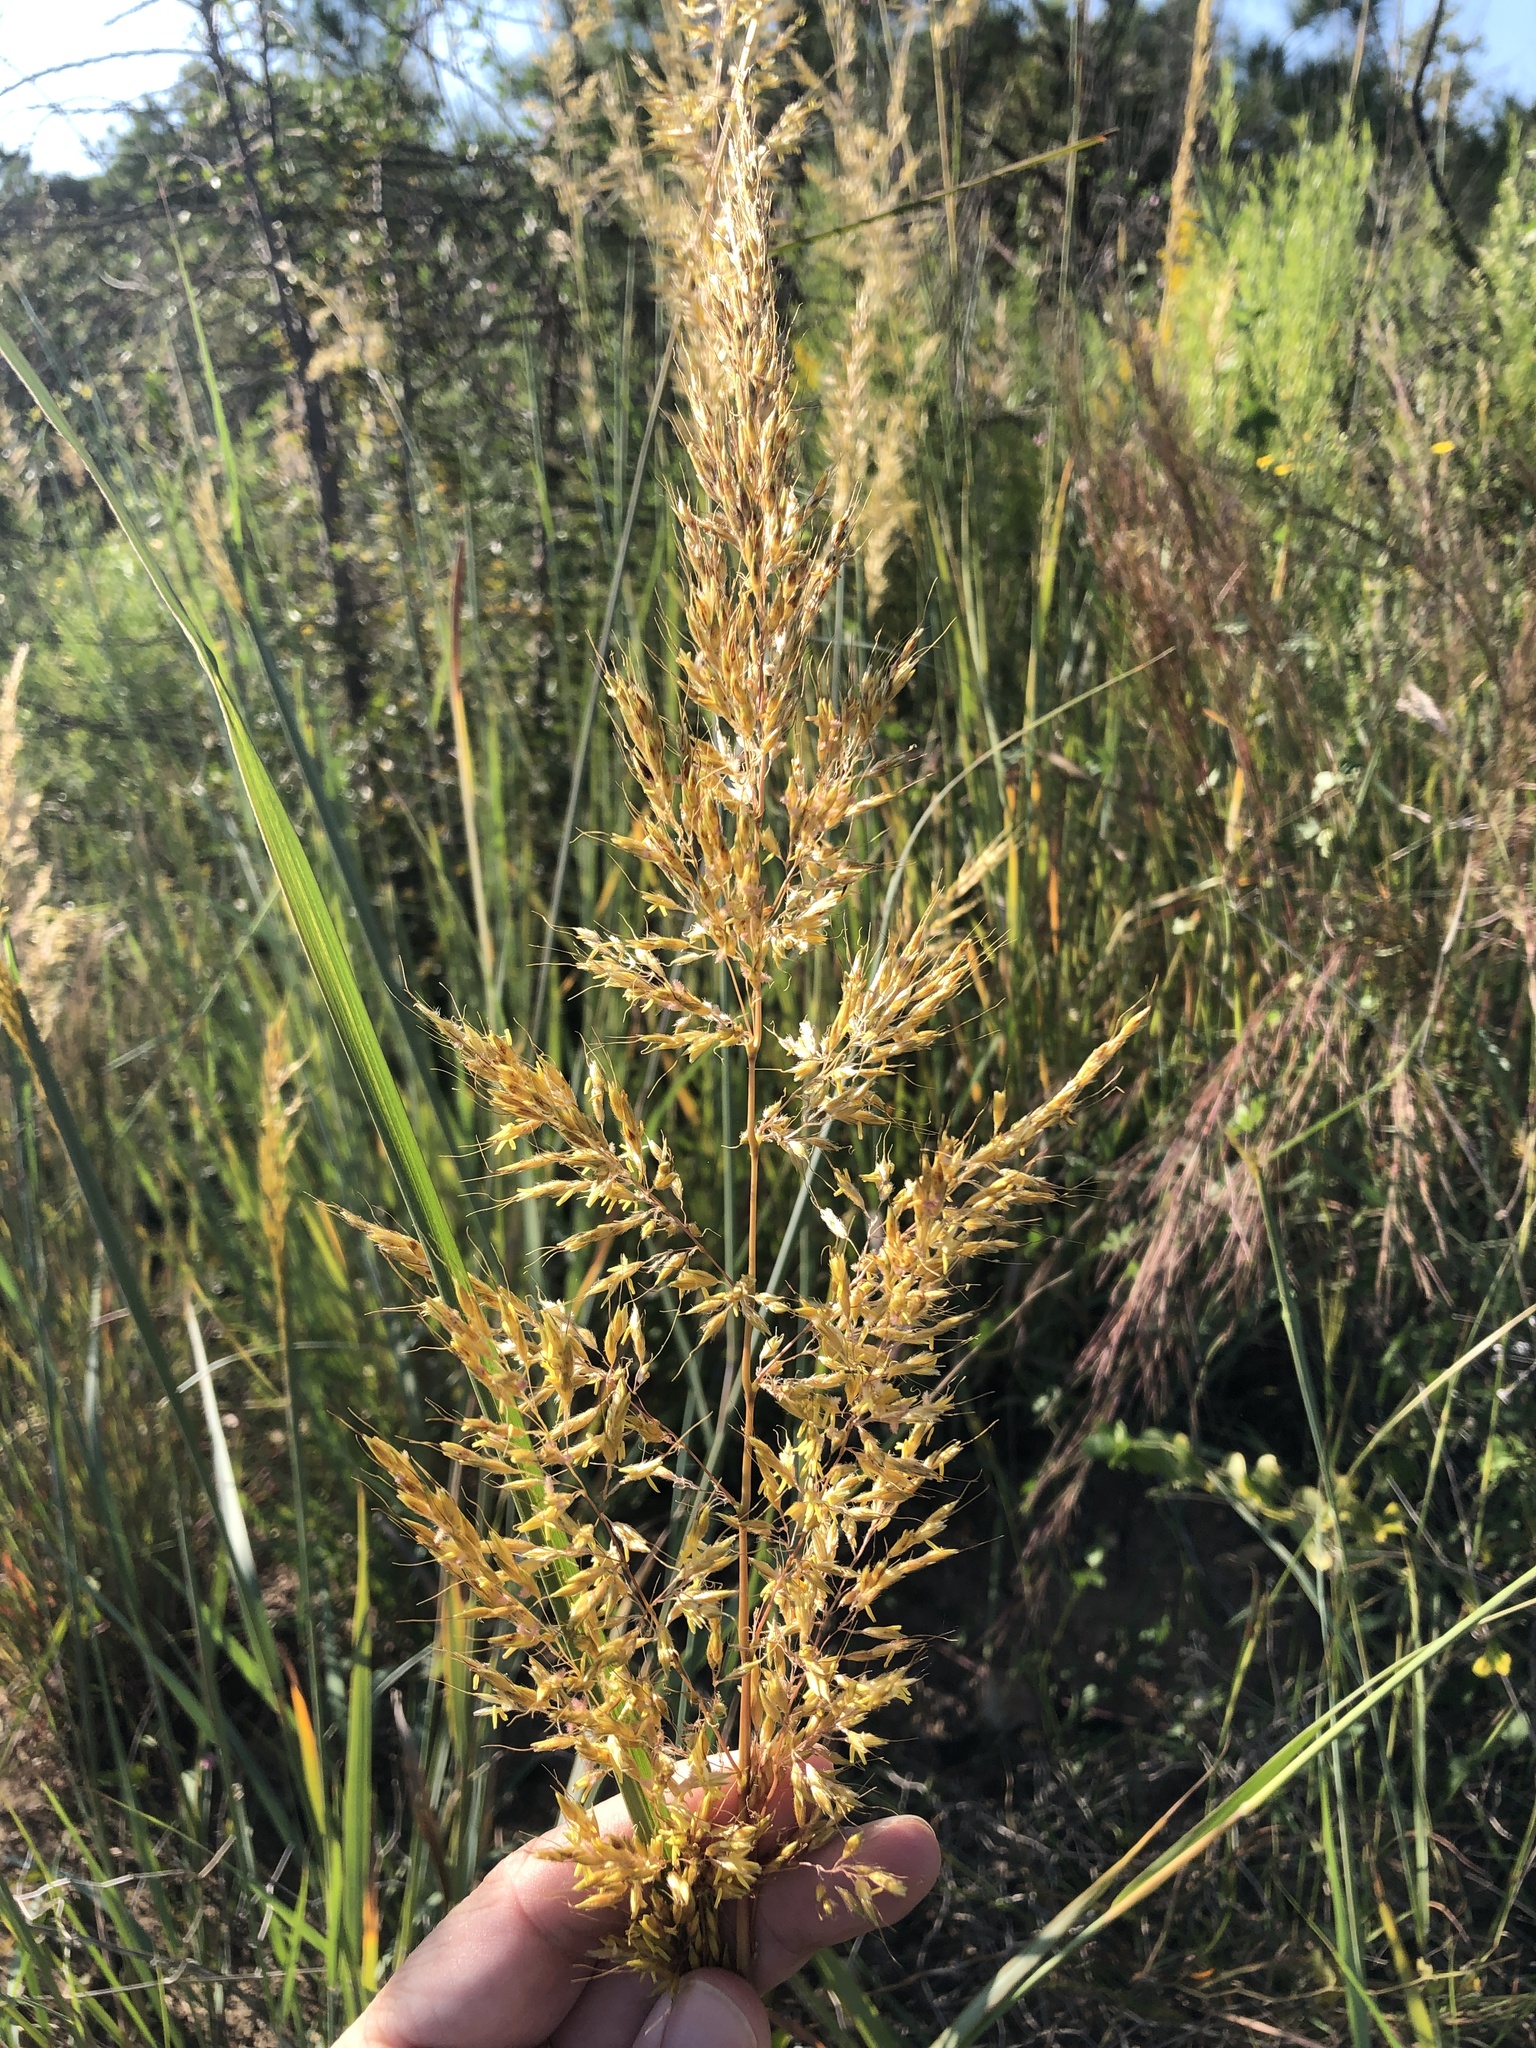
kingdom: Plantae
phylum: Tracheophyta
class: Liliopsida
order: Poales
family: Poaceae
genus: Sorghastrum
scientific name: Sorghastrum nutans
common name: Indian grass
